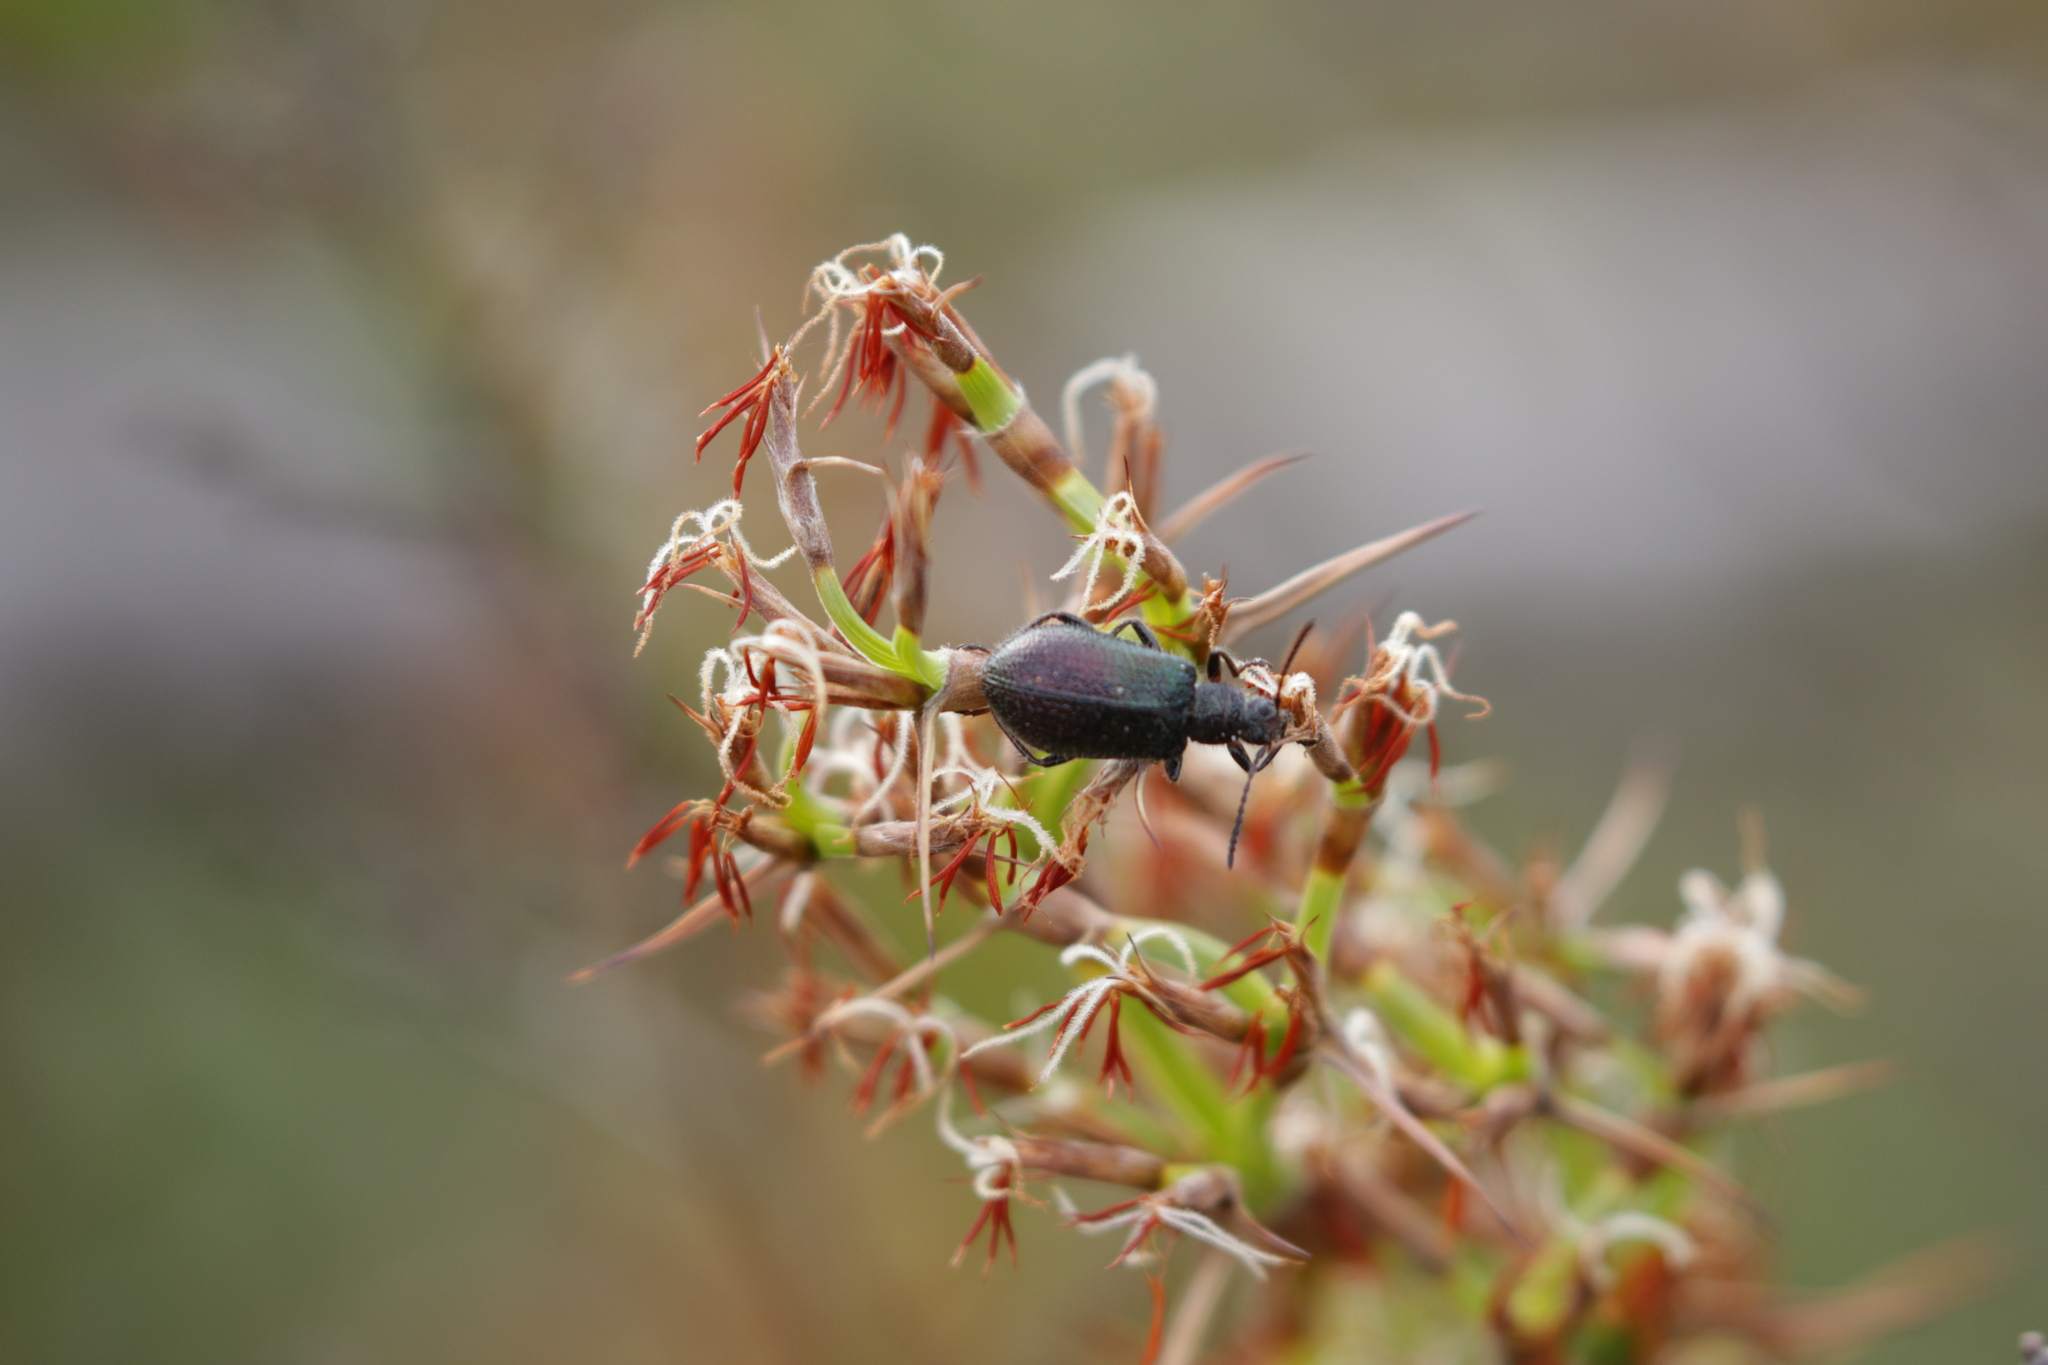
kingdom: Animalia
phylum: Arthropoda
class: Insecta
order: Coleoptera
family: Tenebrionidae
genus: Ecnolagria
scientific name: Ecnolagria
